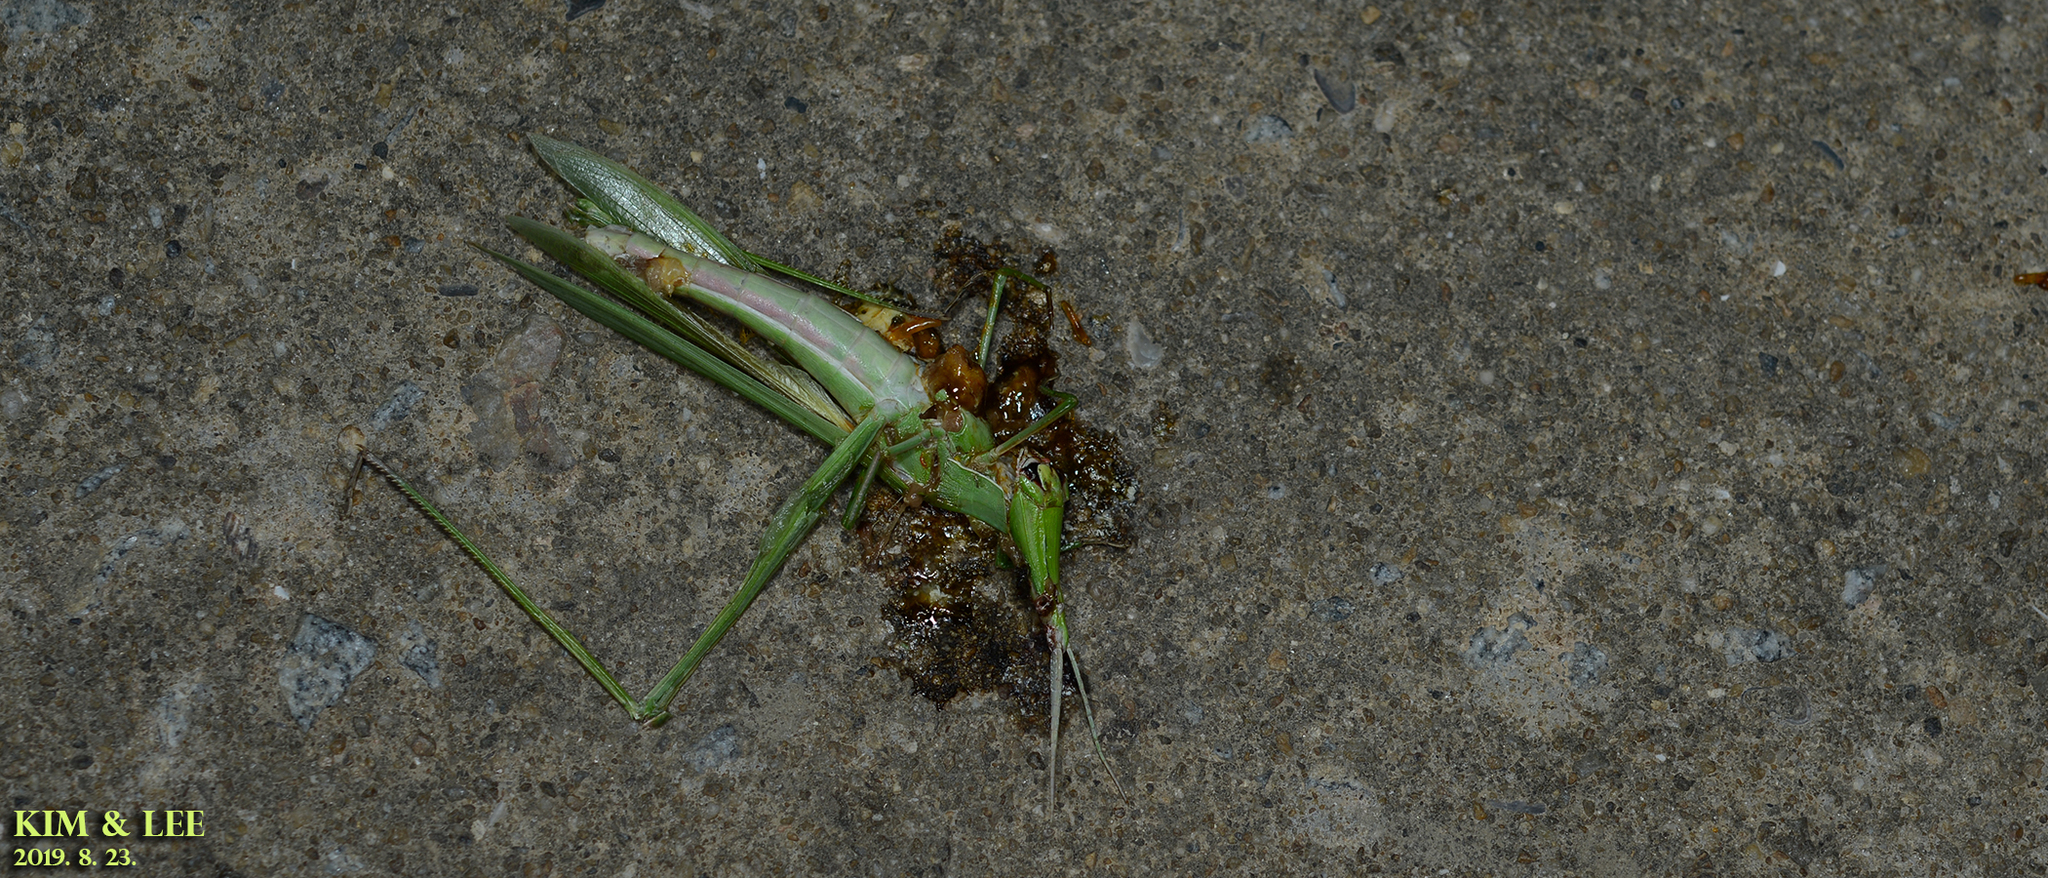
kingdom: Animalia
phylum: Arthropoda
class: Insecta
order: Orthoptera
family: Acrididae
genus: Acrida
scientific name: Acrida cinerea
